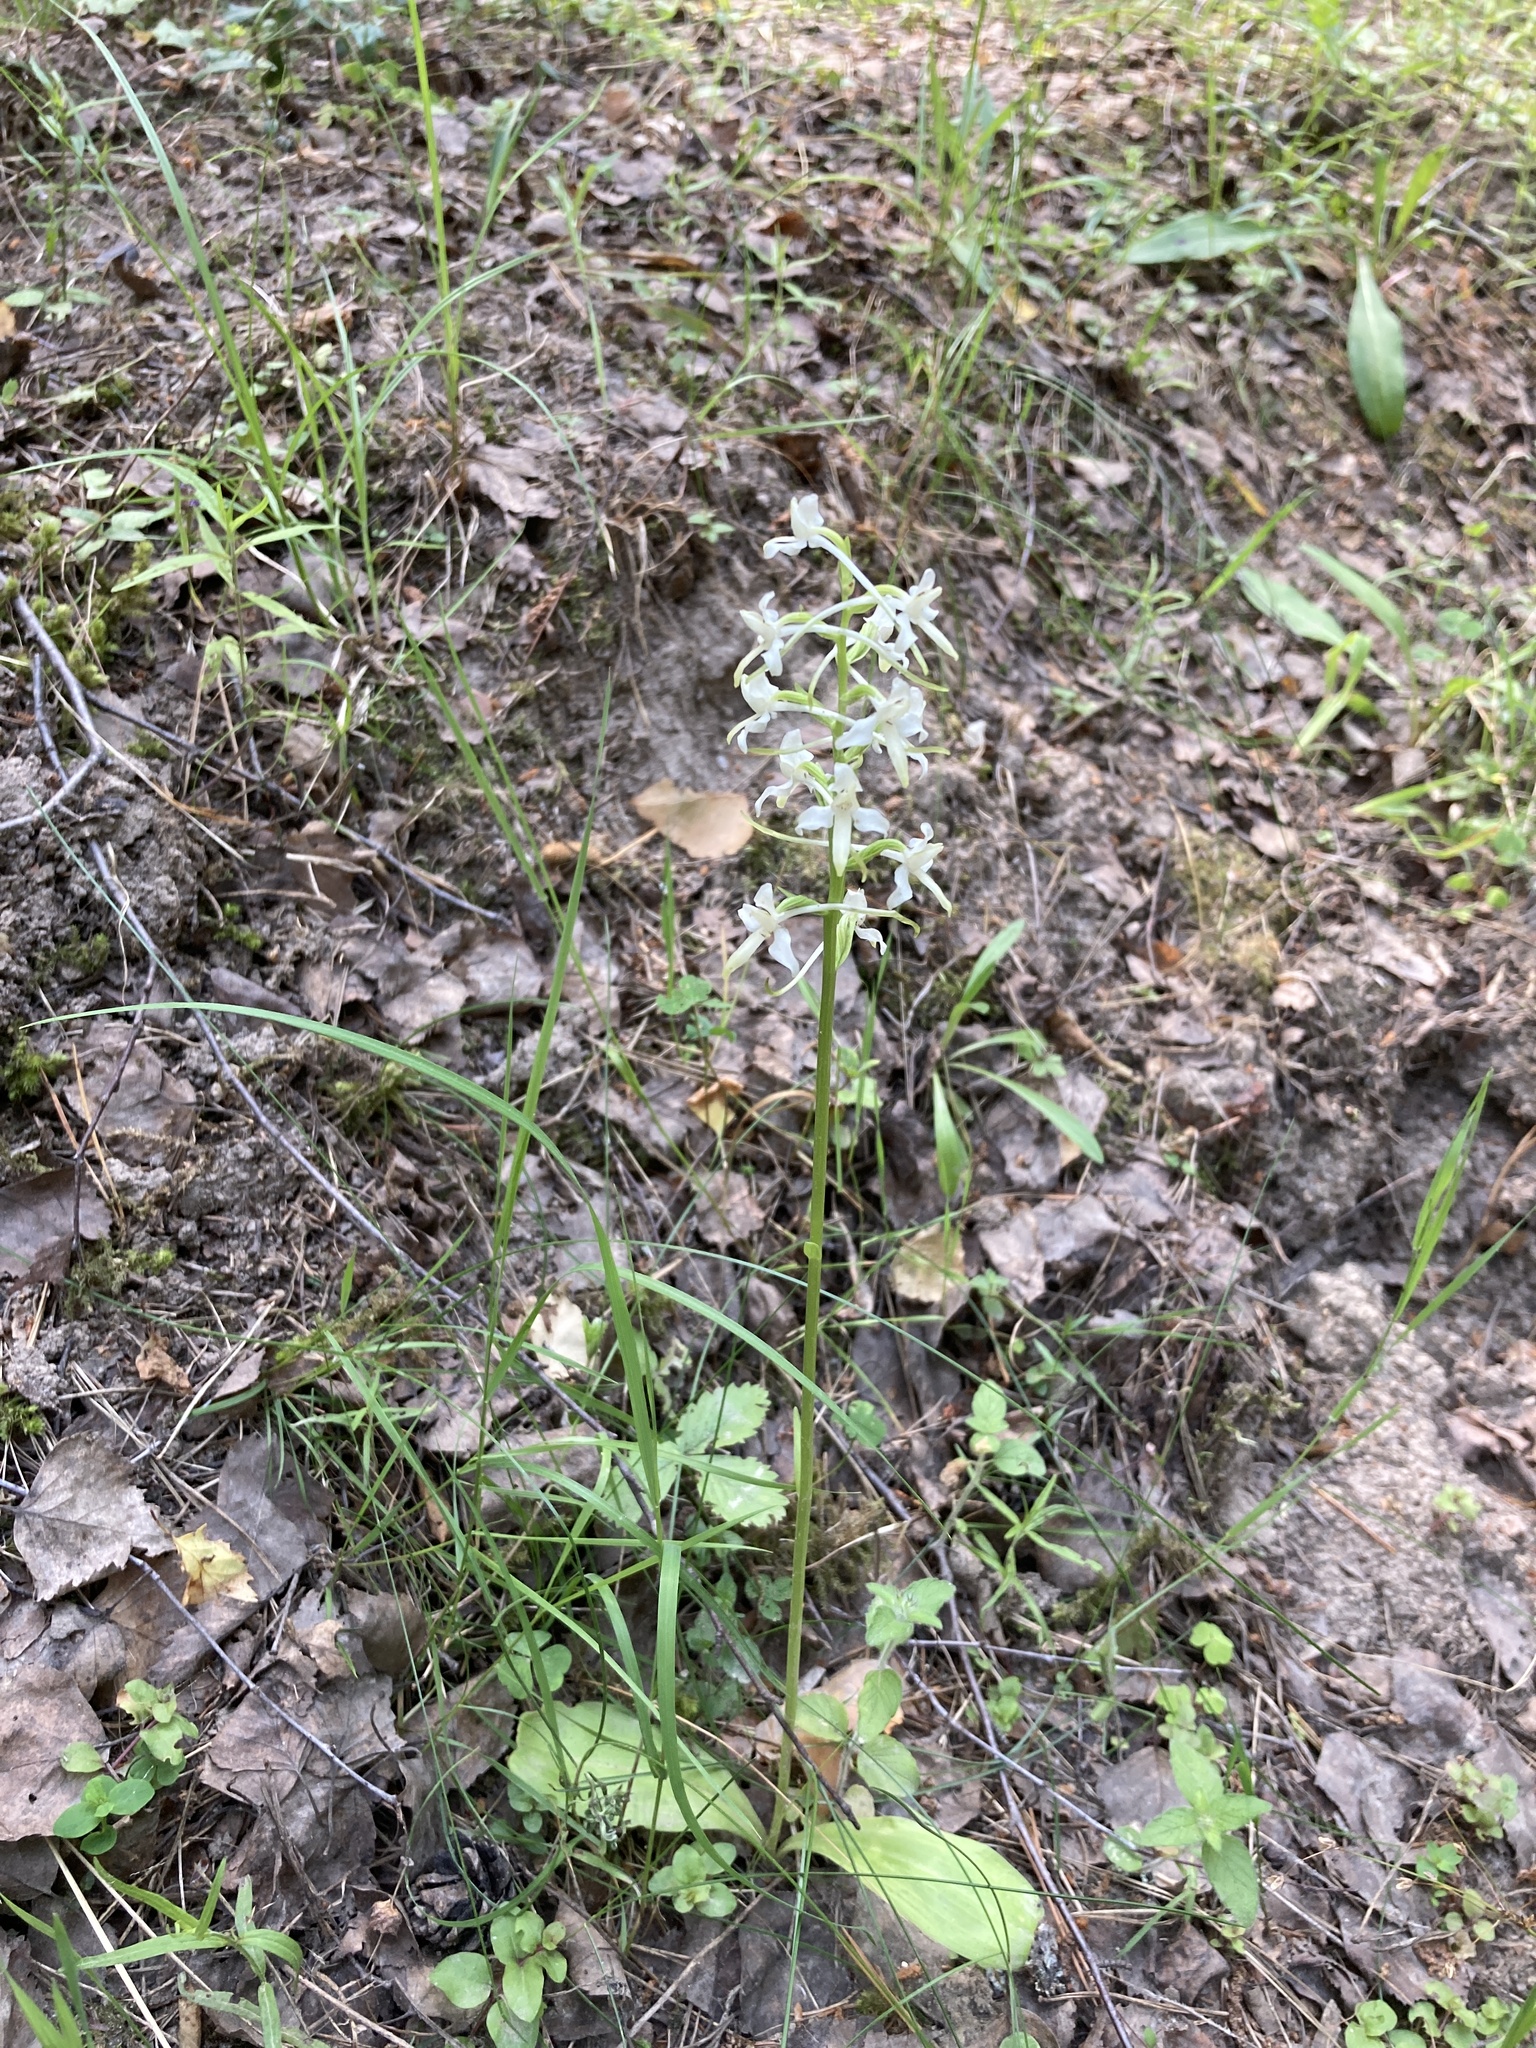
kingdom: Plantae
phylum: Tracheophyta
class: Liliopsida
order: Asparagales
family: Orchidaceae
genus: Platanthera
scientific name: Platanthera bifolia
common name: Lesser butterfly-orchid
